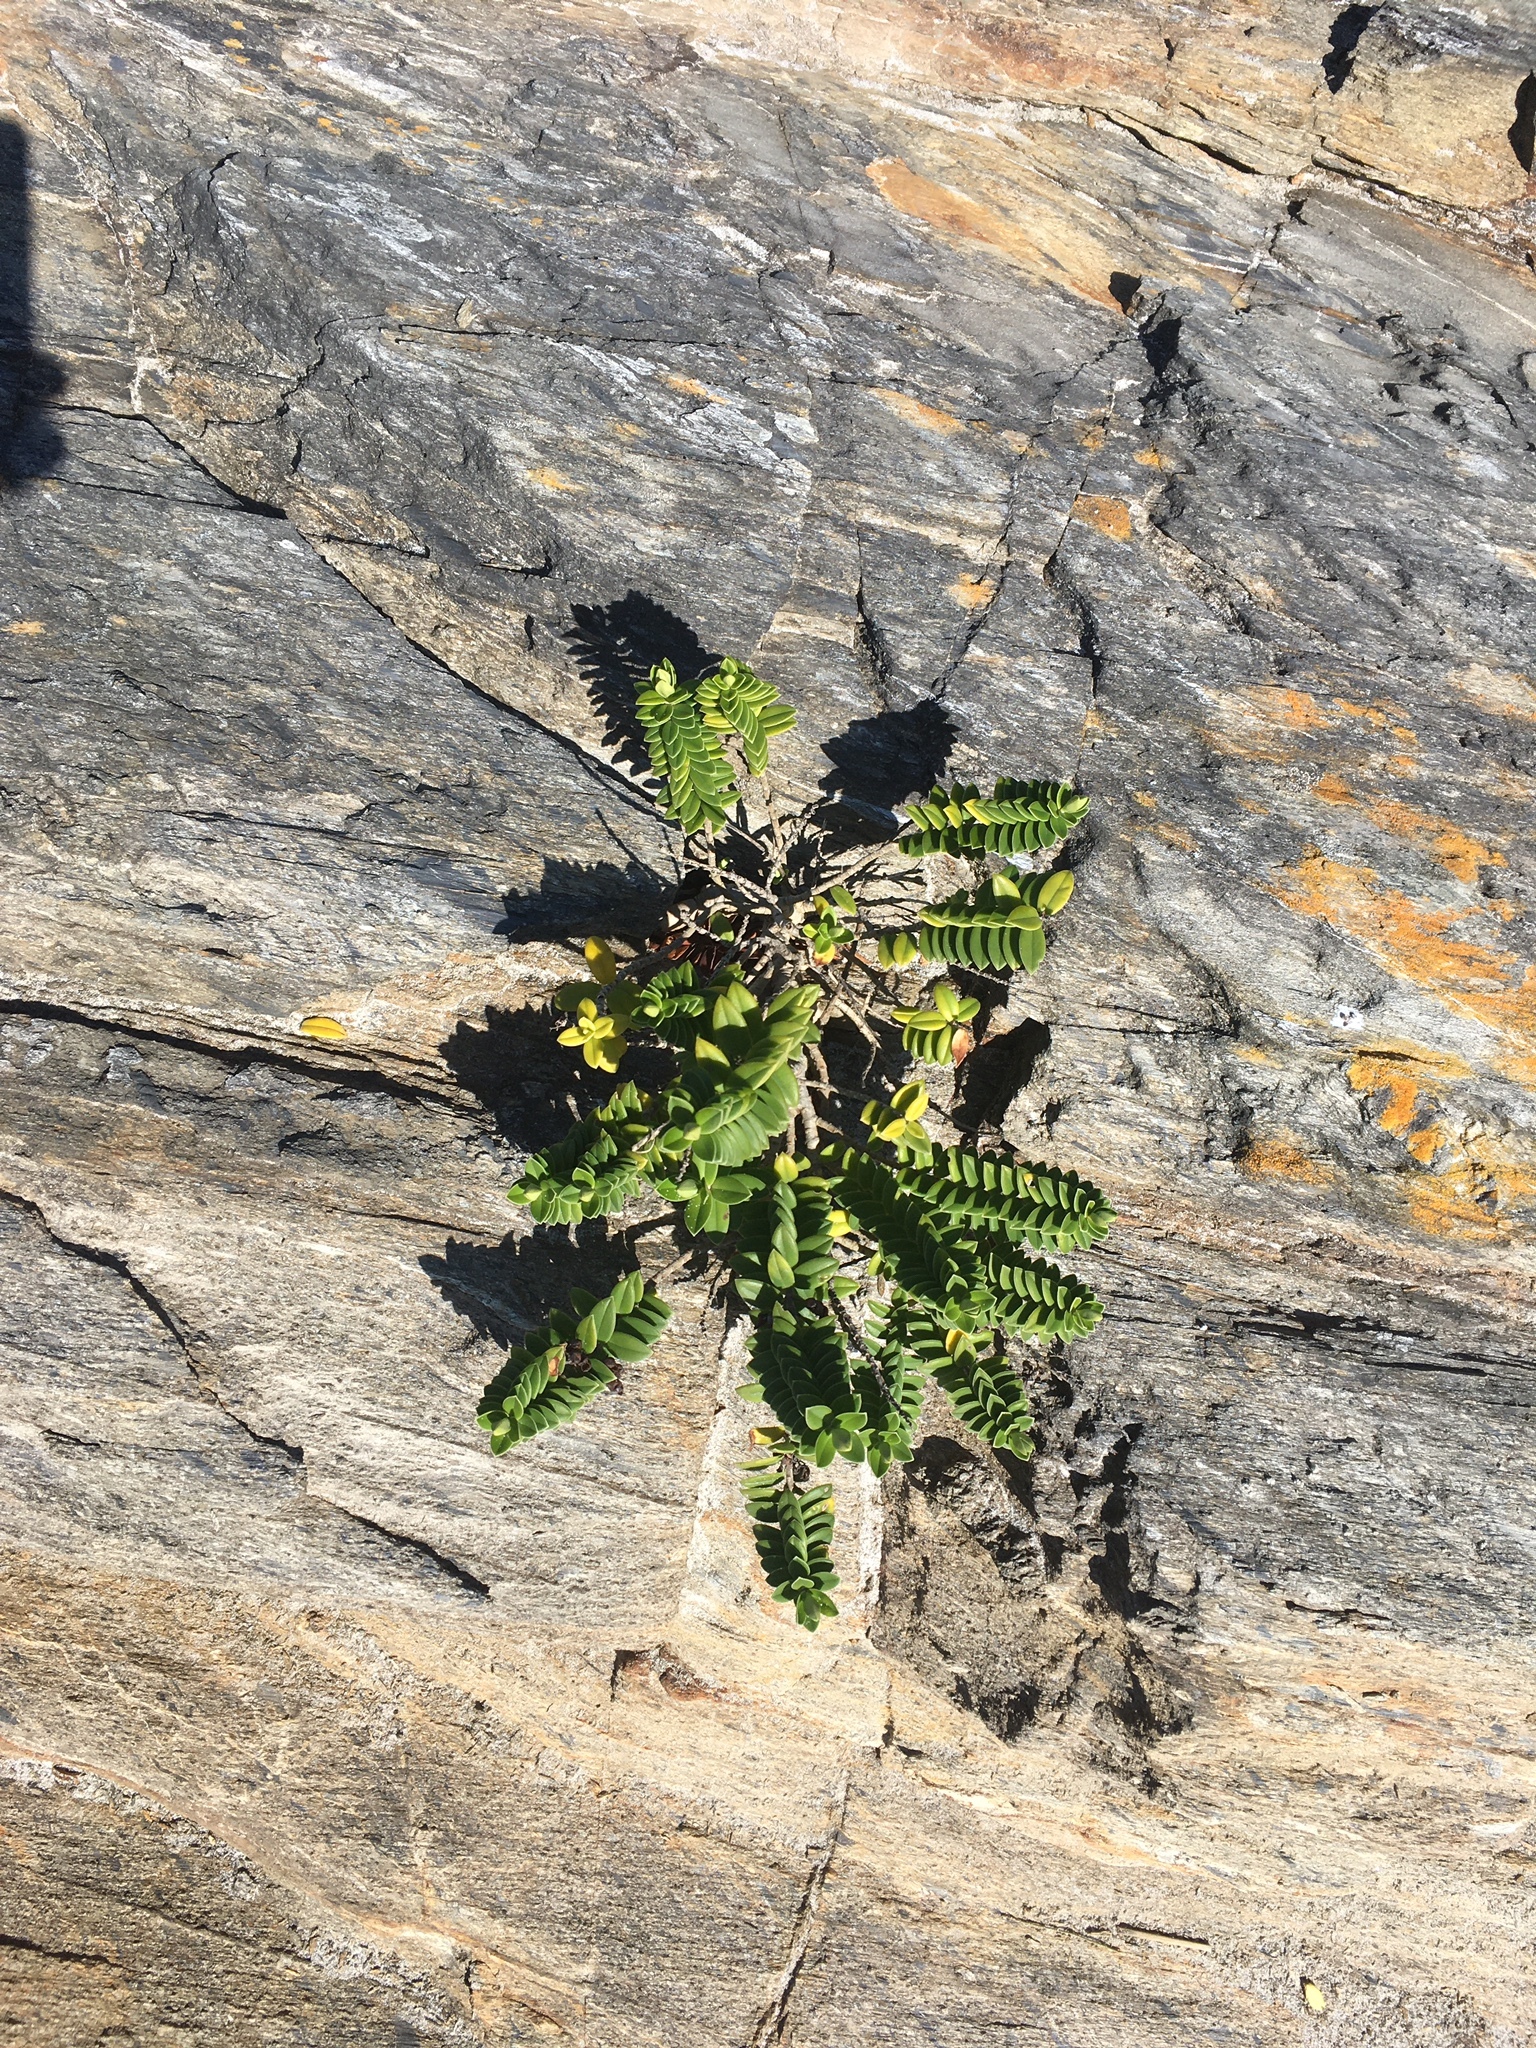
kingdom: Plantae
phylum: Tracheophyta
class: Magnoliopsida
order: Lamiales
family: Plantaginaceae
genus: Veronica
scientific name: Veronica elliptica
